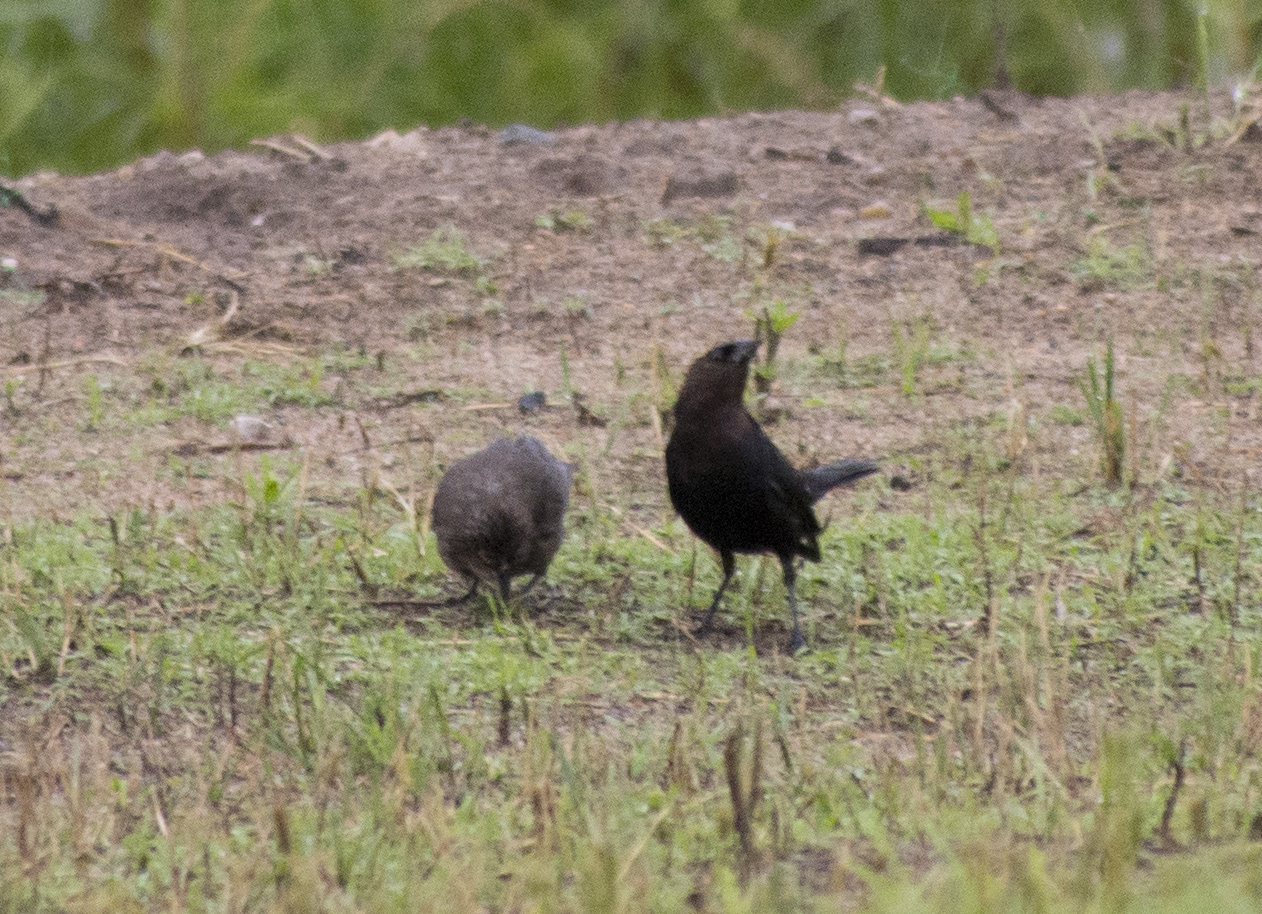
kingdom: Animalia
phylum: Chordata
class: Aves
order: Passeriformes
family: Icteridae
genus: Molothrus
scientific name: Molothrus ater
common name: Brown-headed cowbird
